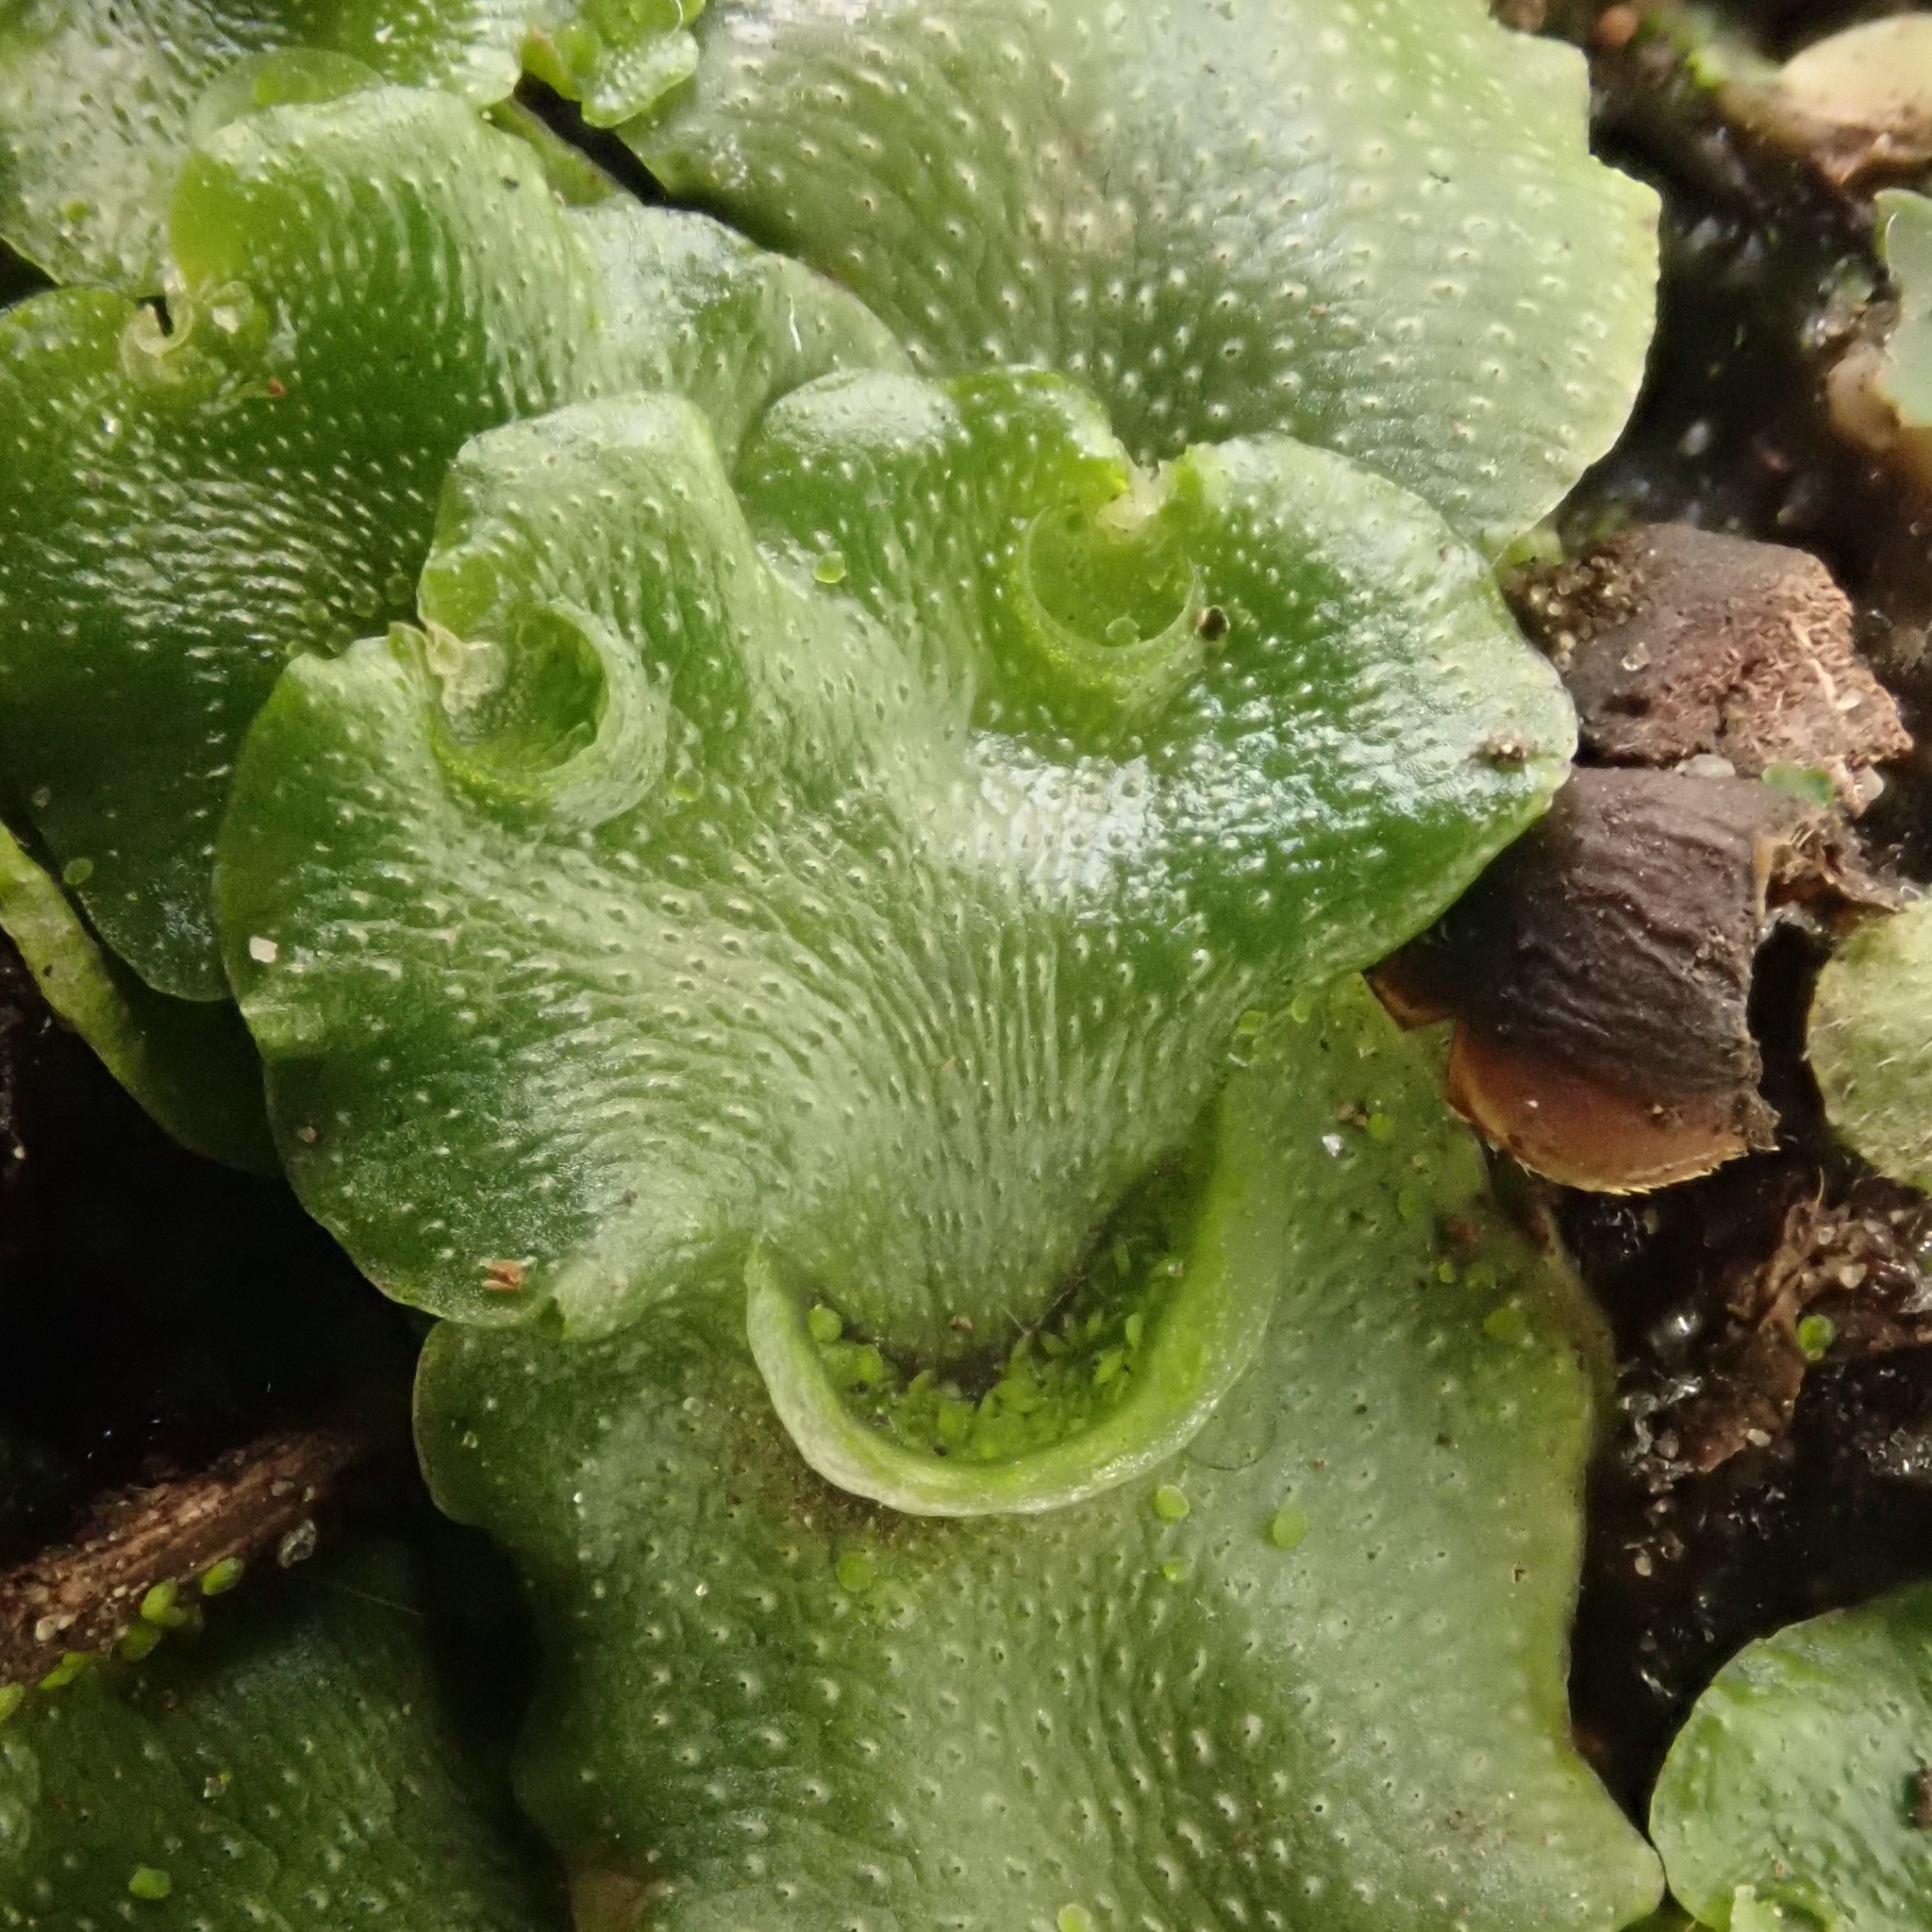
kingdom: Plantae
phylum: Marchantiophyta
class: Marchantiopsida
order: Lunulariales
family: Lunulariaceae
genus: Lunularia
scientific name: Lunularia cruciata
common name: Crescent-cup liverwort
